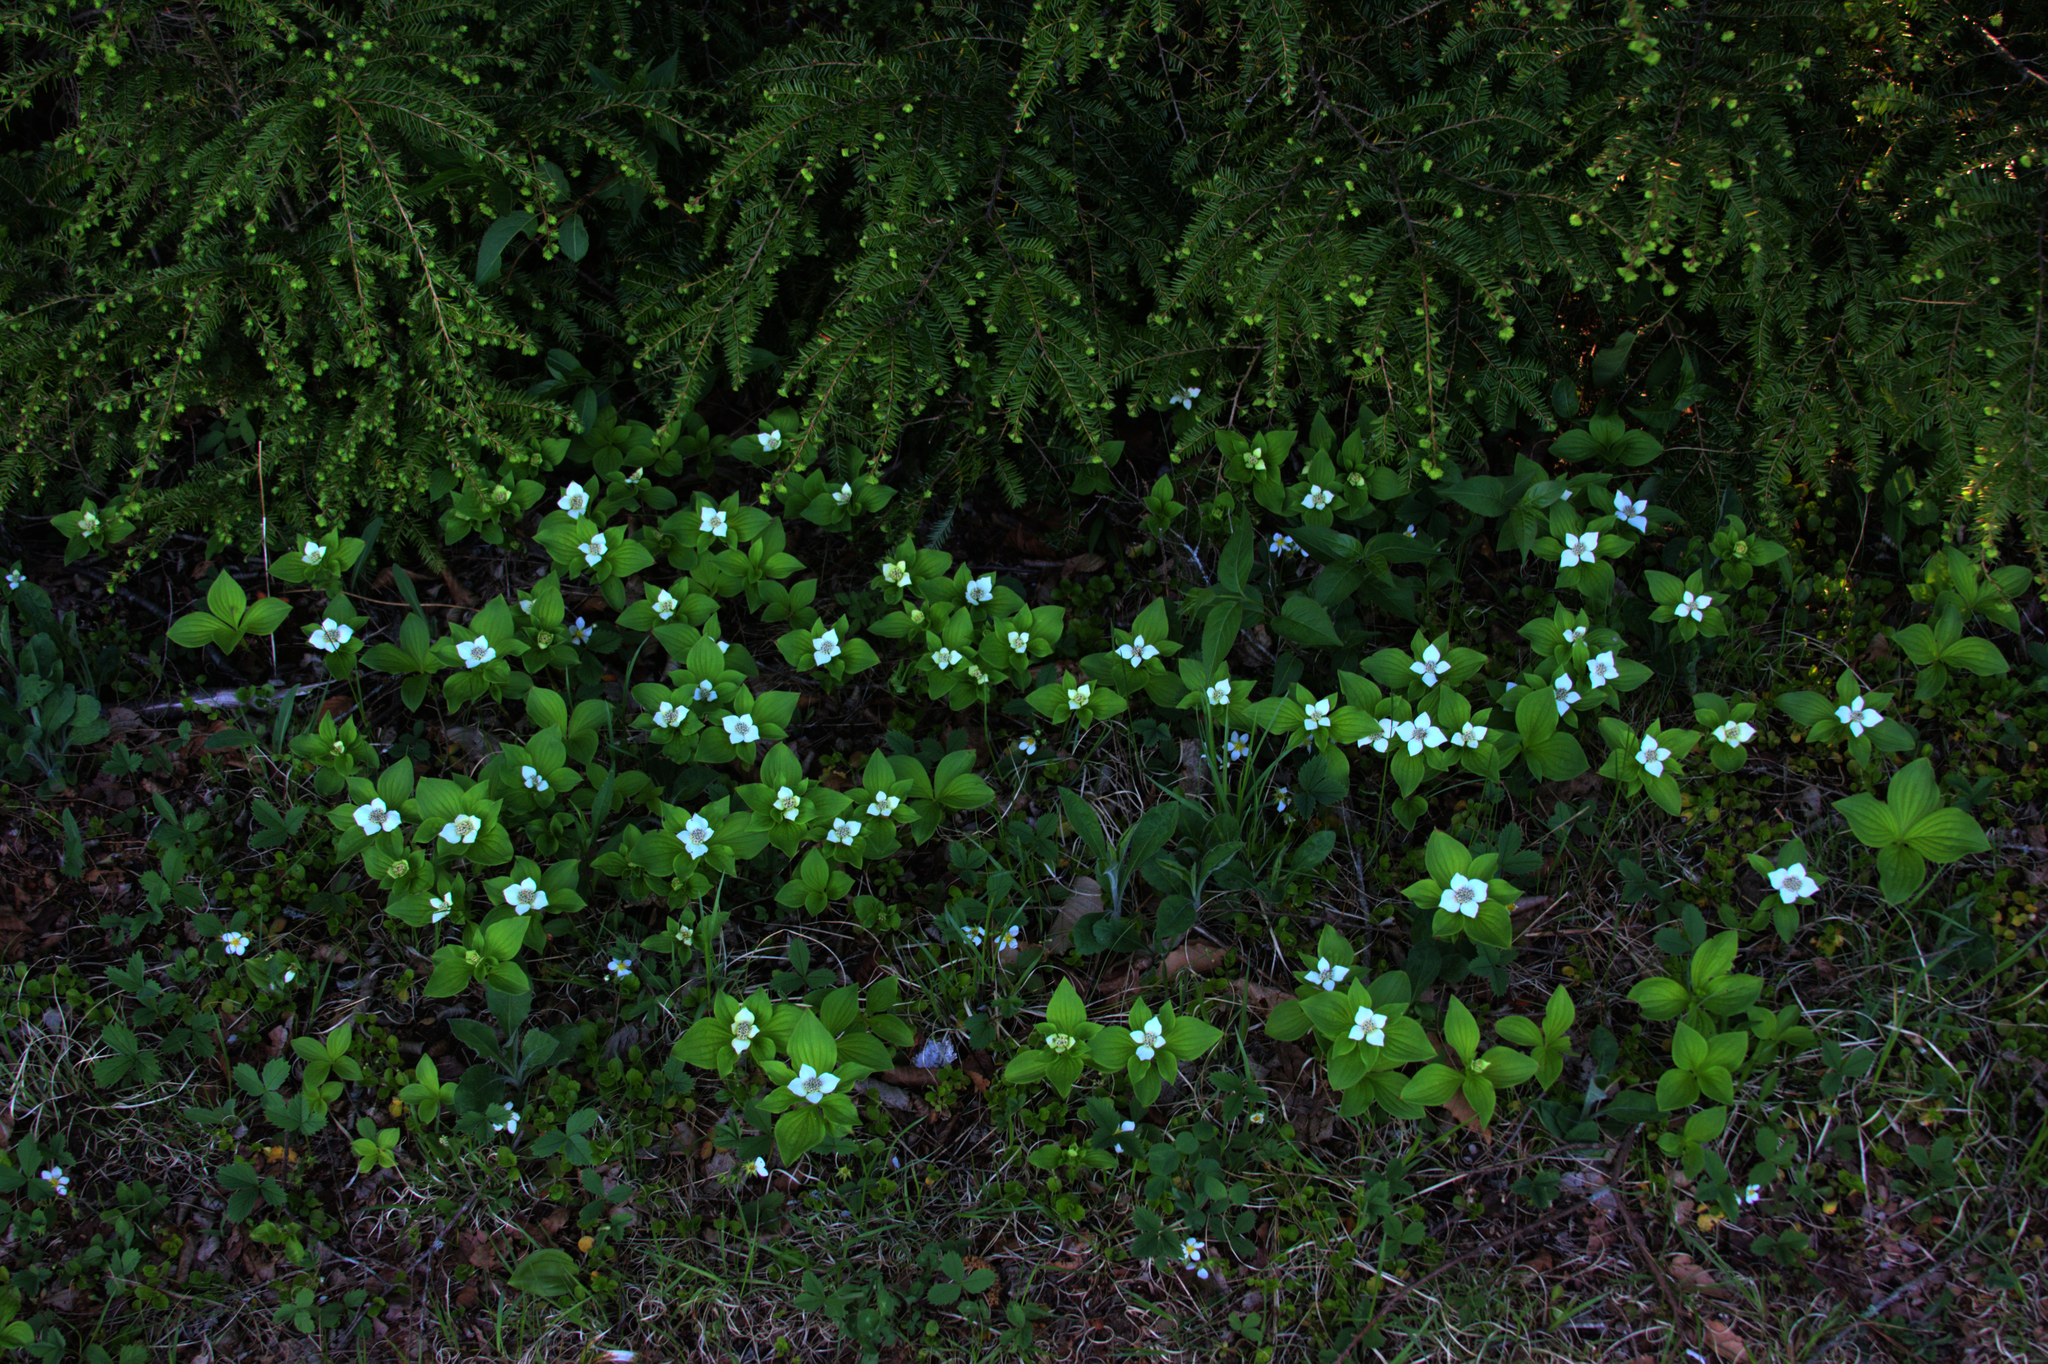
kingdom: Plantae
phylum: Tracheophyta
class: Pinopsida
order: Pinales
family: Pinaceae
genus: Tsuga
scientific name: Tsuga canadensis
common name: Eastern hemlock
